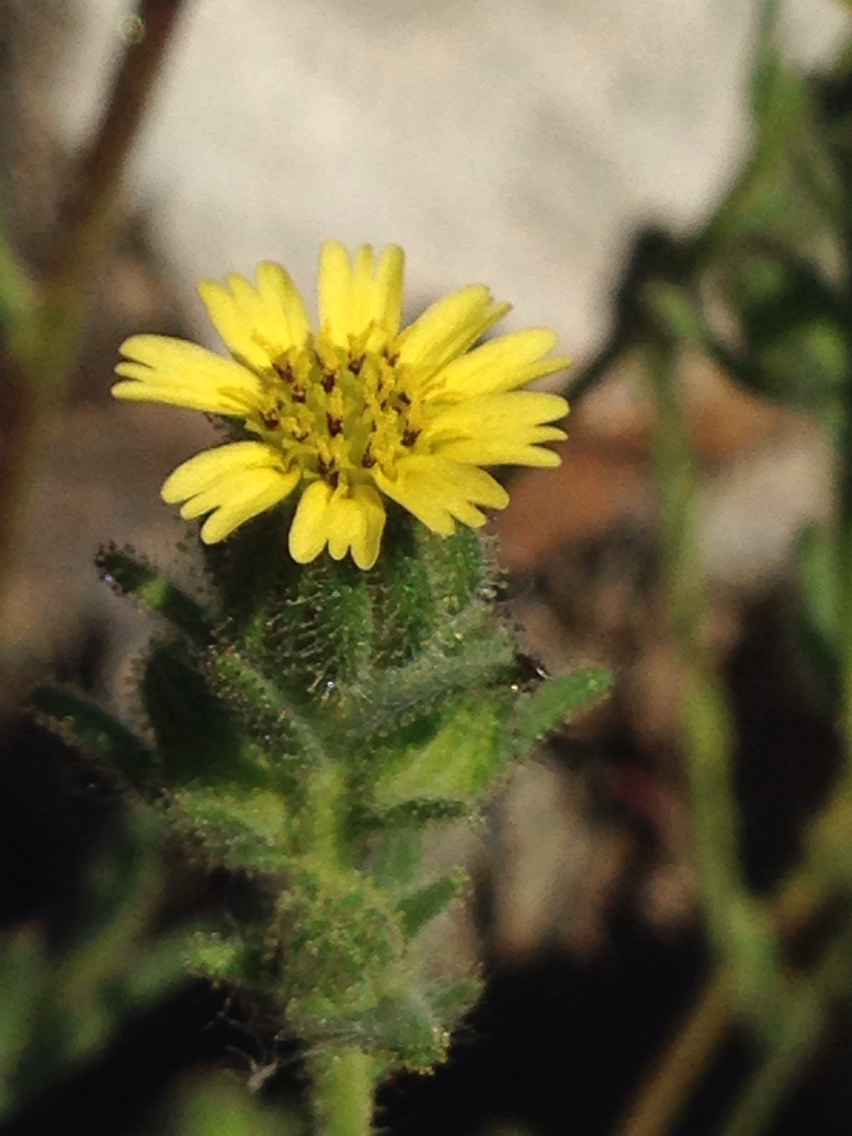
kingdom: Plantae
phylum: Tracheophyta
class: Magnoliopsida
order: Asterales
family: Asteraceae
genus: Madia
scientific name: Madia gracilis
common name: Grassy tarweed
